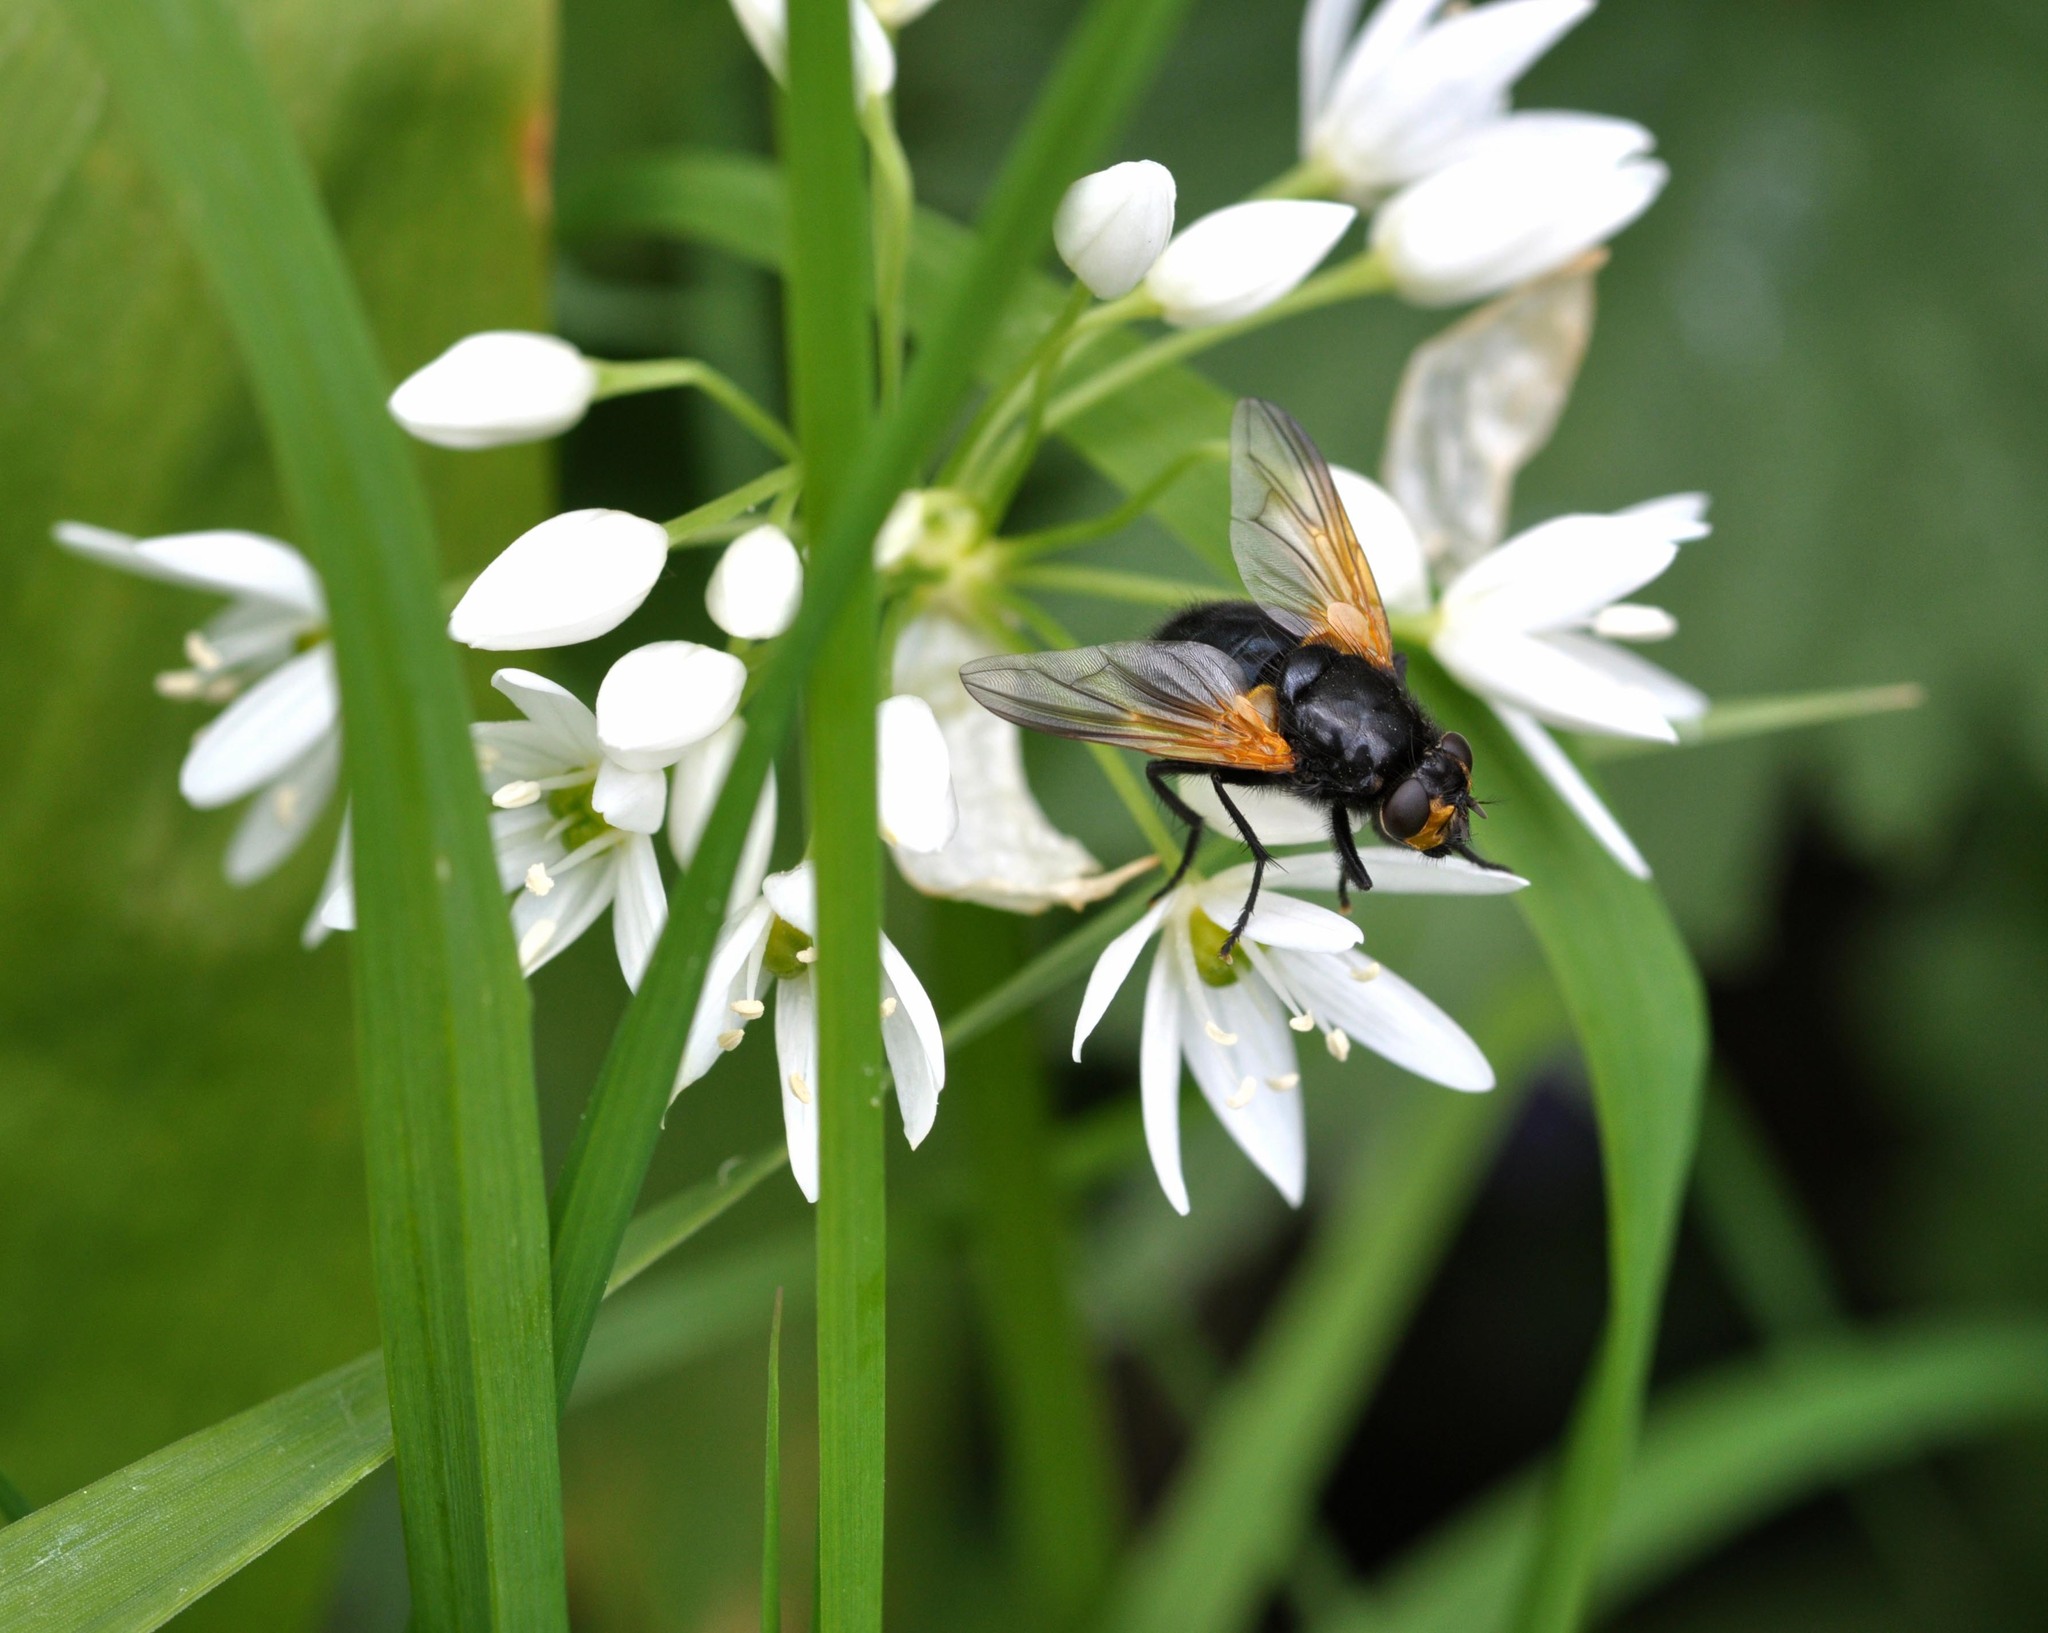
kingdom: Animalia
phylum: Arthropoda
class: Insecta
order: Diptera
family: Muscidae
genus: Mesembrina
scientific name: Mesembrina meridiana
